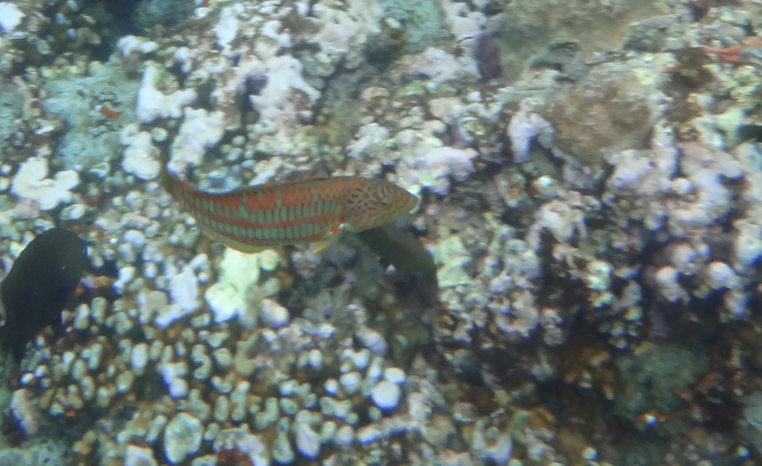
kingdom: Animalia
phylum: Chordata
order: Perciformes
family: Labridae
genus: Thalassoma
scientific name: Thalassoma trilobatum
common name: Christmas wrasse
